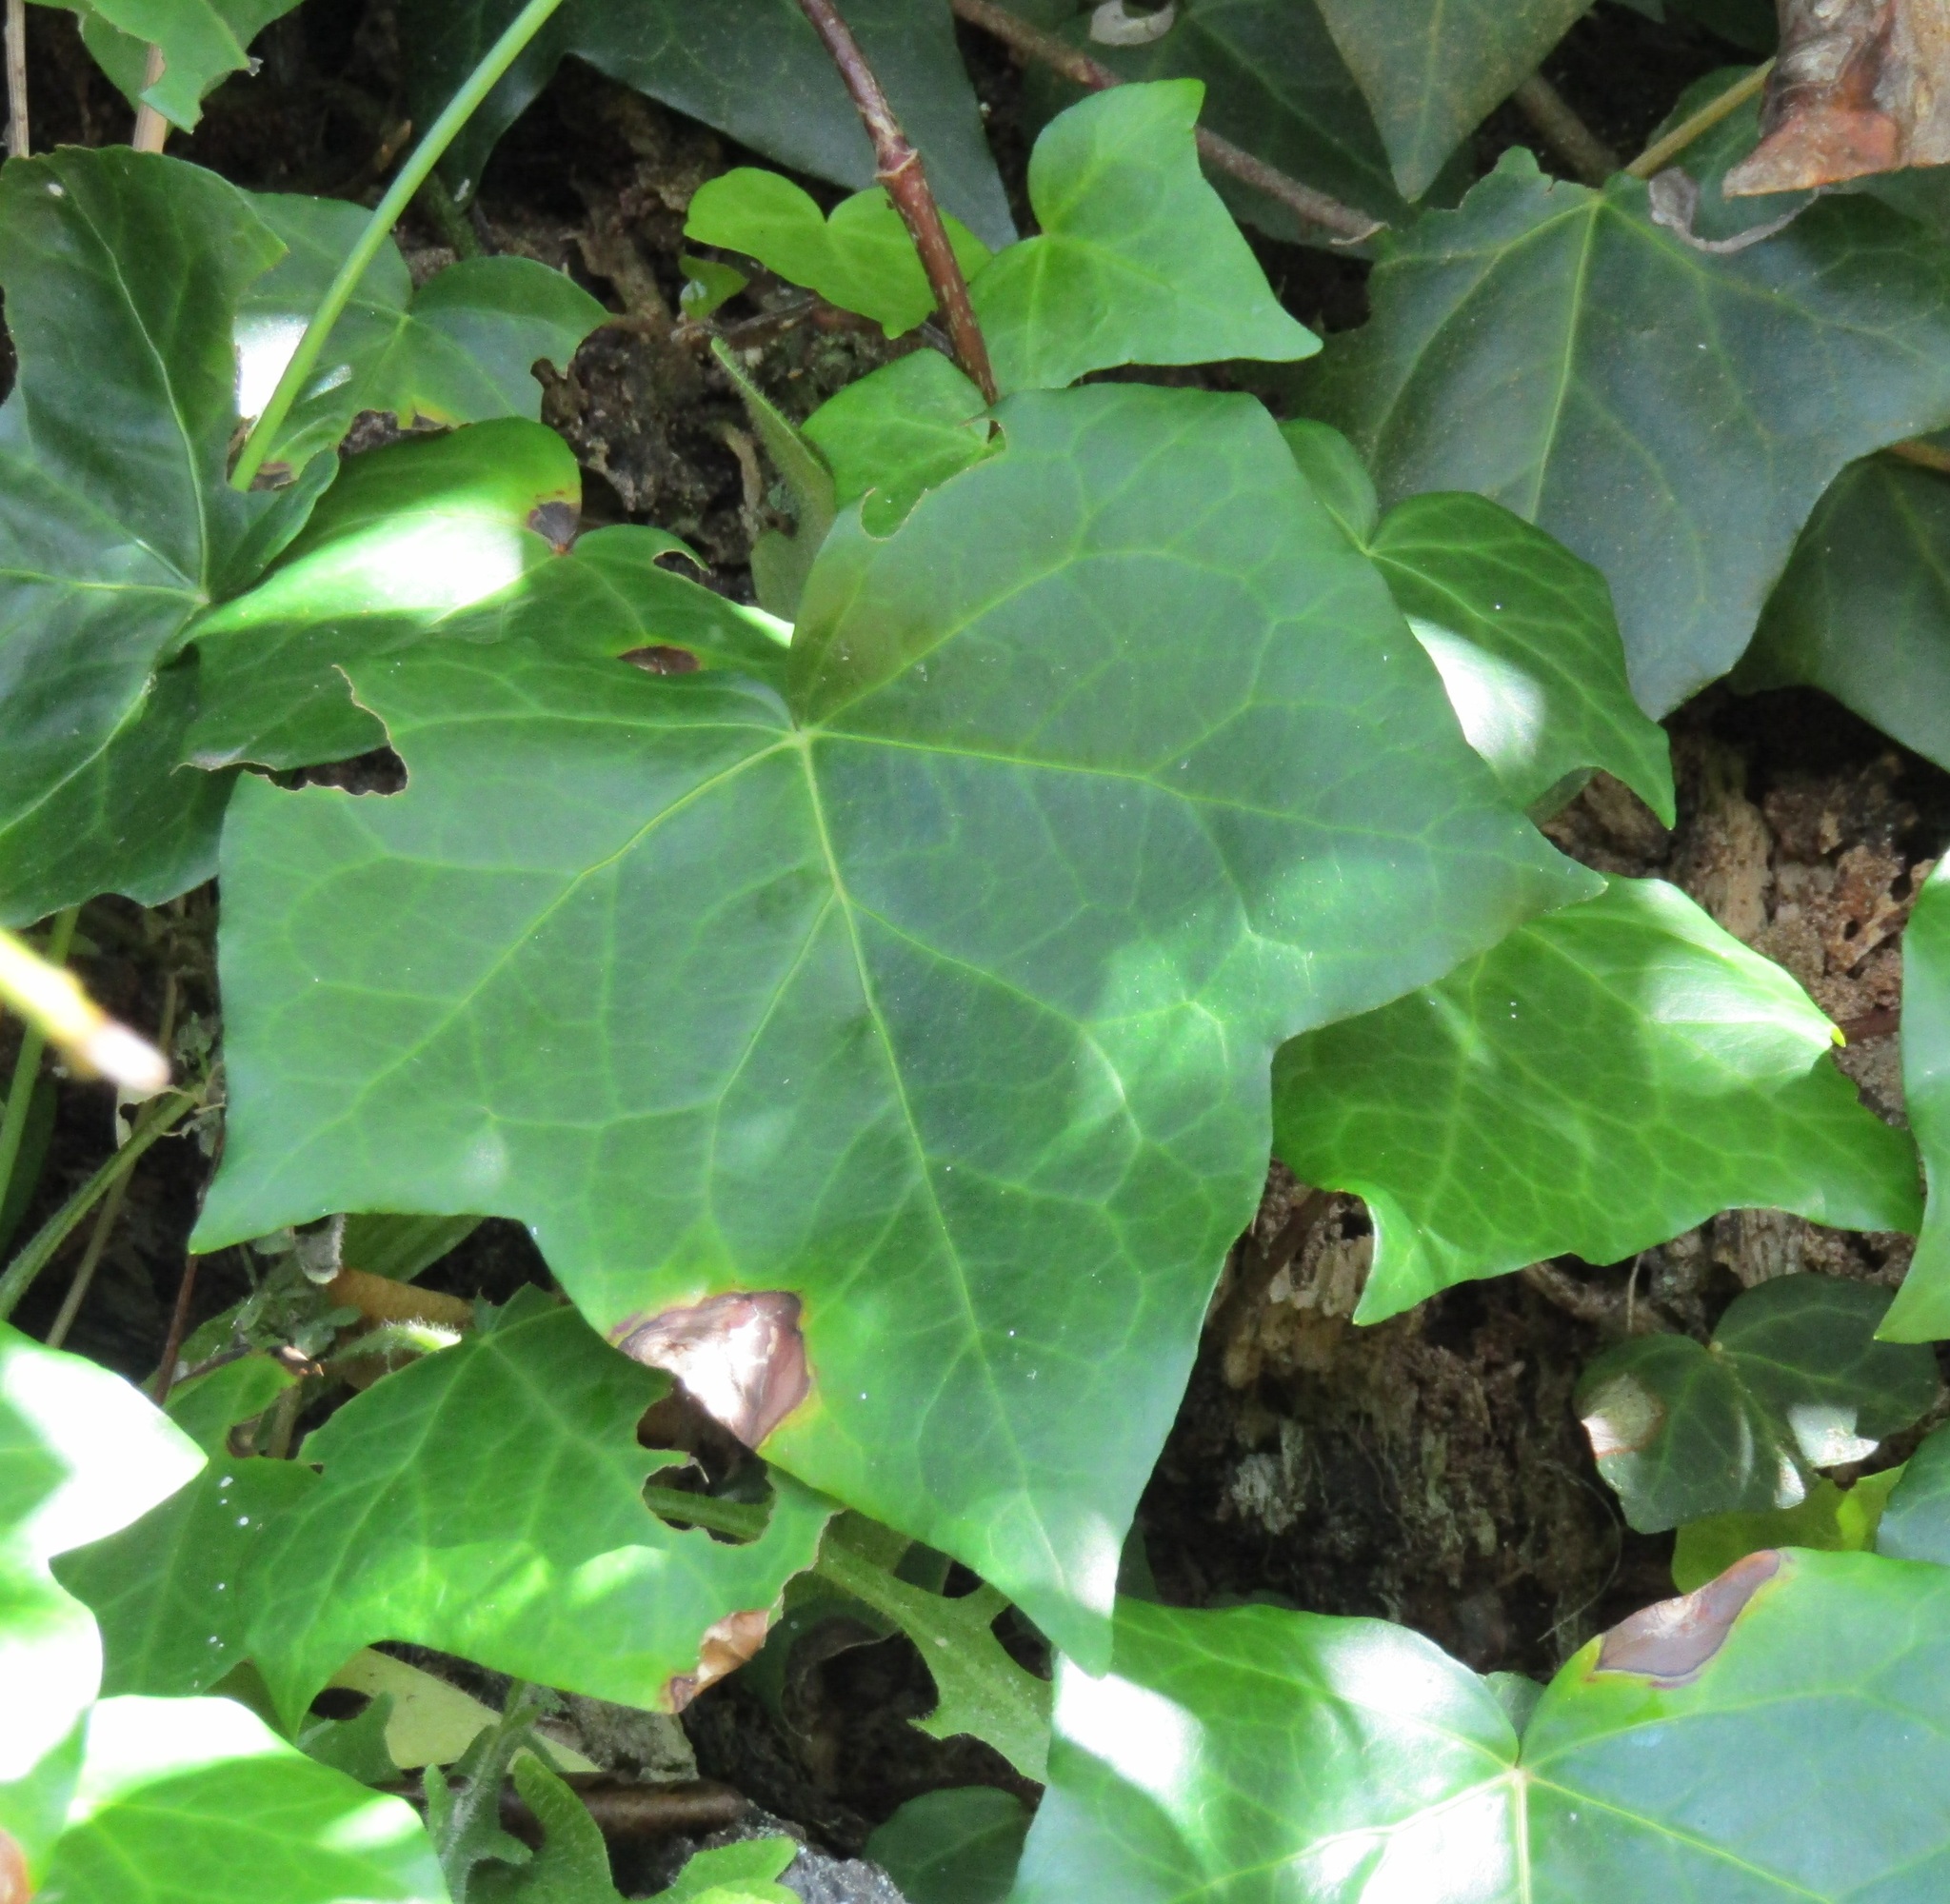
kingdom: Plantae
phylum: Tracheophyta
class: Magnoliopsida
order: Apiales
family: Araliaceae
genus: Hedera
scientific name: Hedera helix
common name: Ivy
